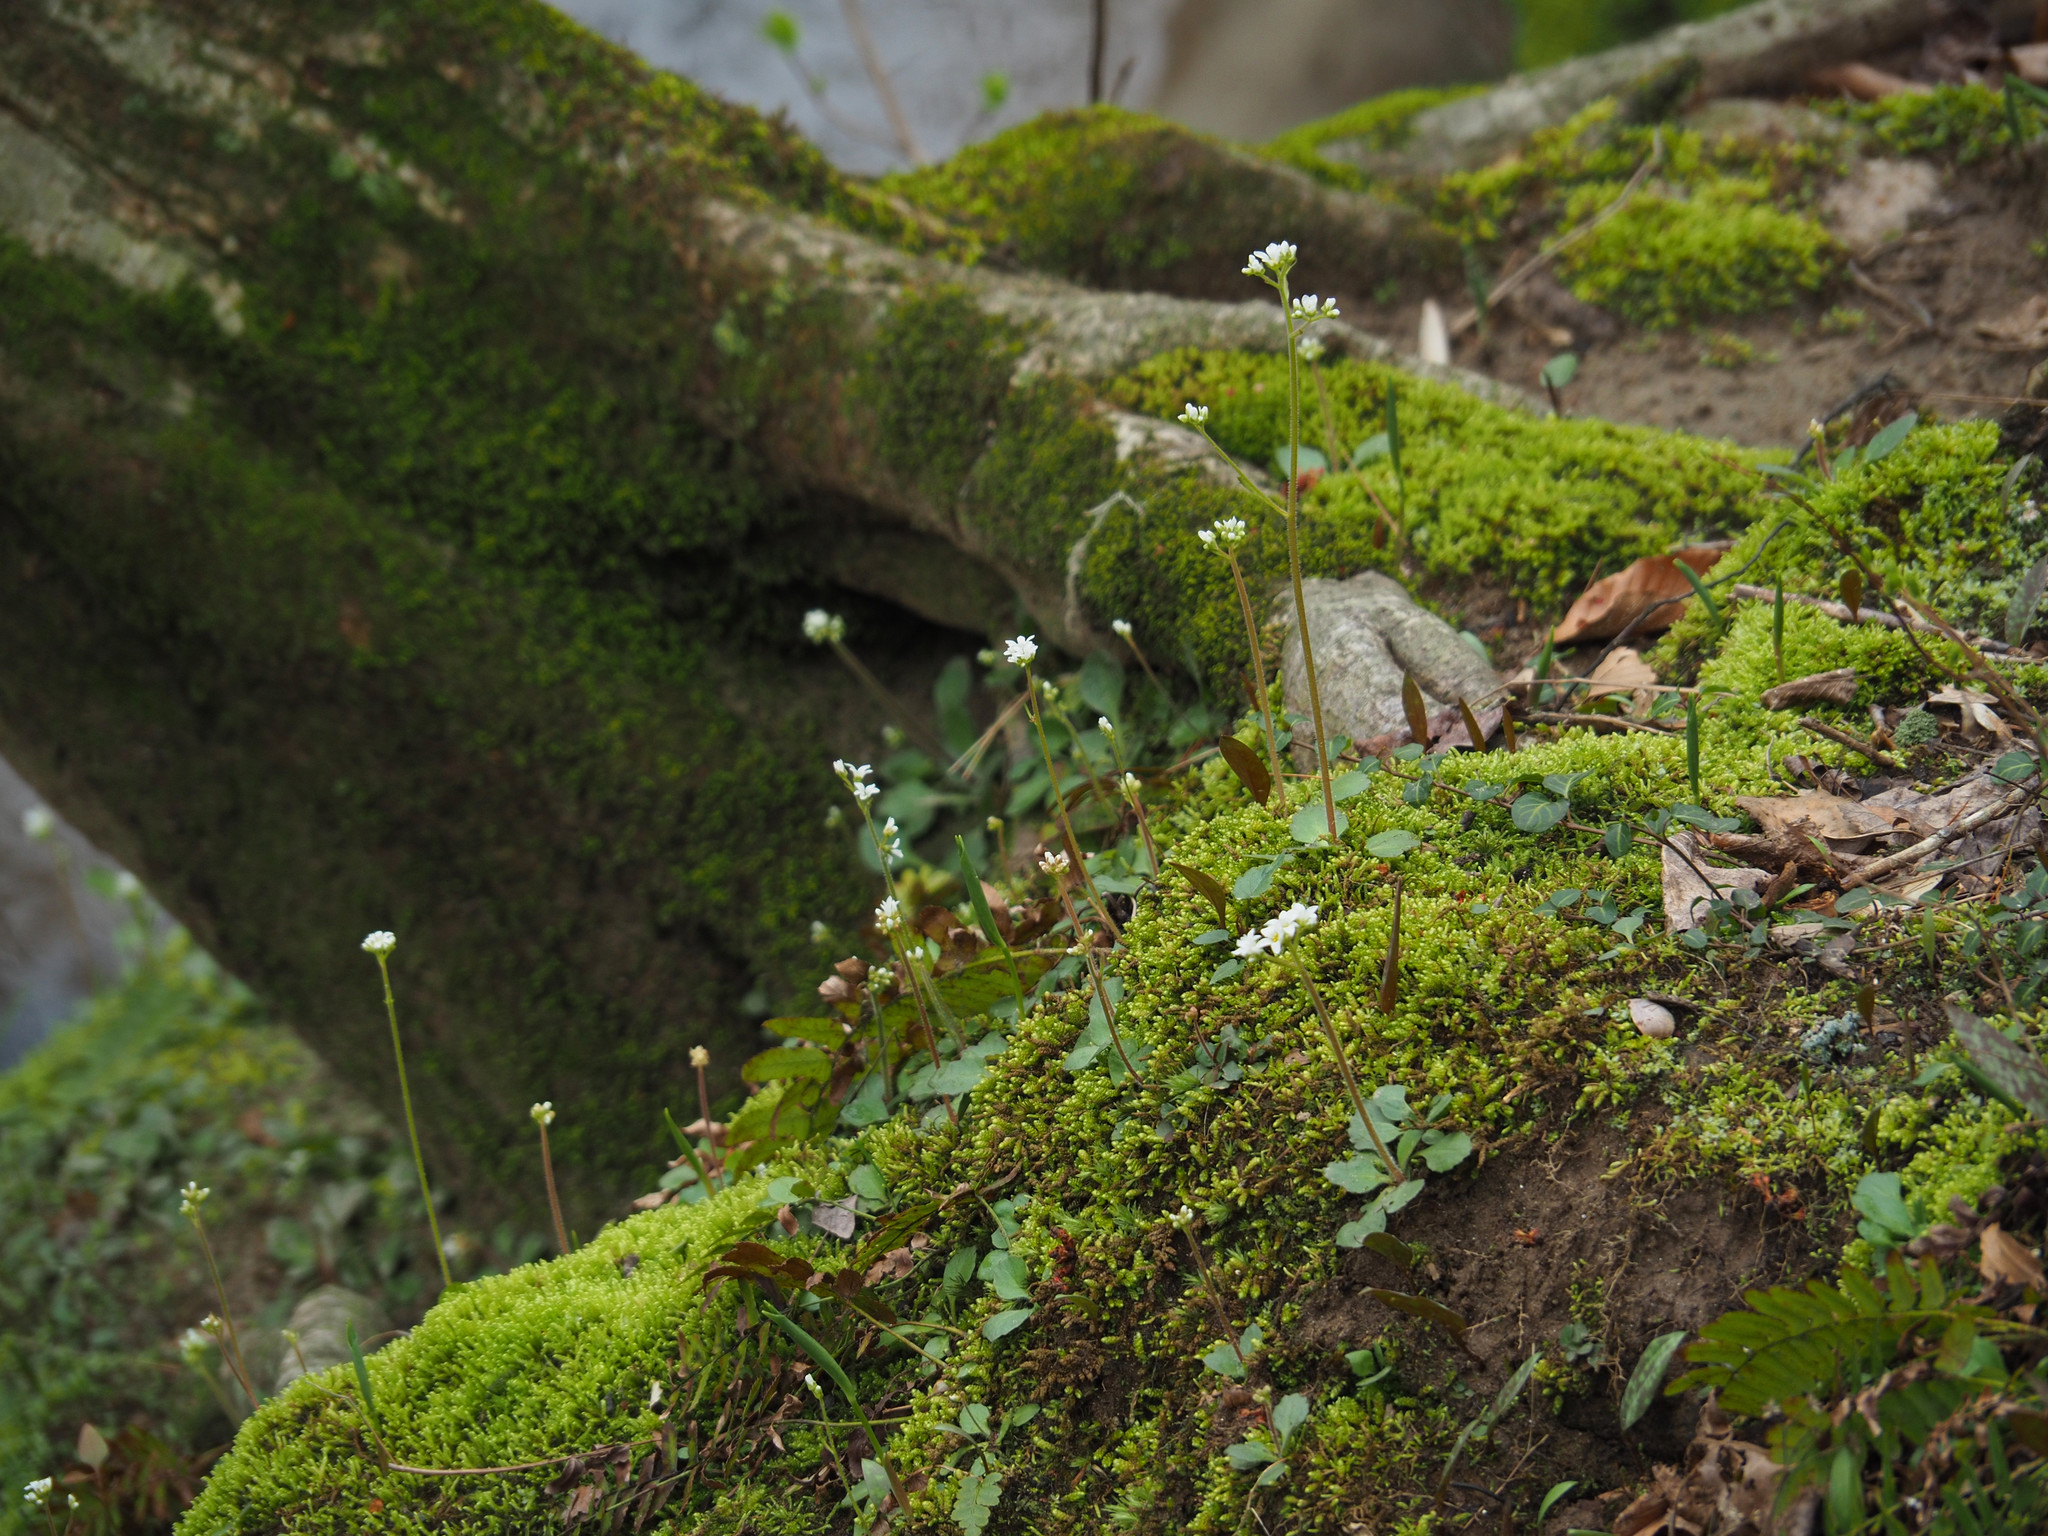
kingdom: Plantae
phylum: Tracheophyta
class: Magnoliopsida
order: Saxifragales
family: Saxifragaceae
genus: Micranthes
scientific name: Micranthes virginiensis
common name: Early saxifrage
